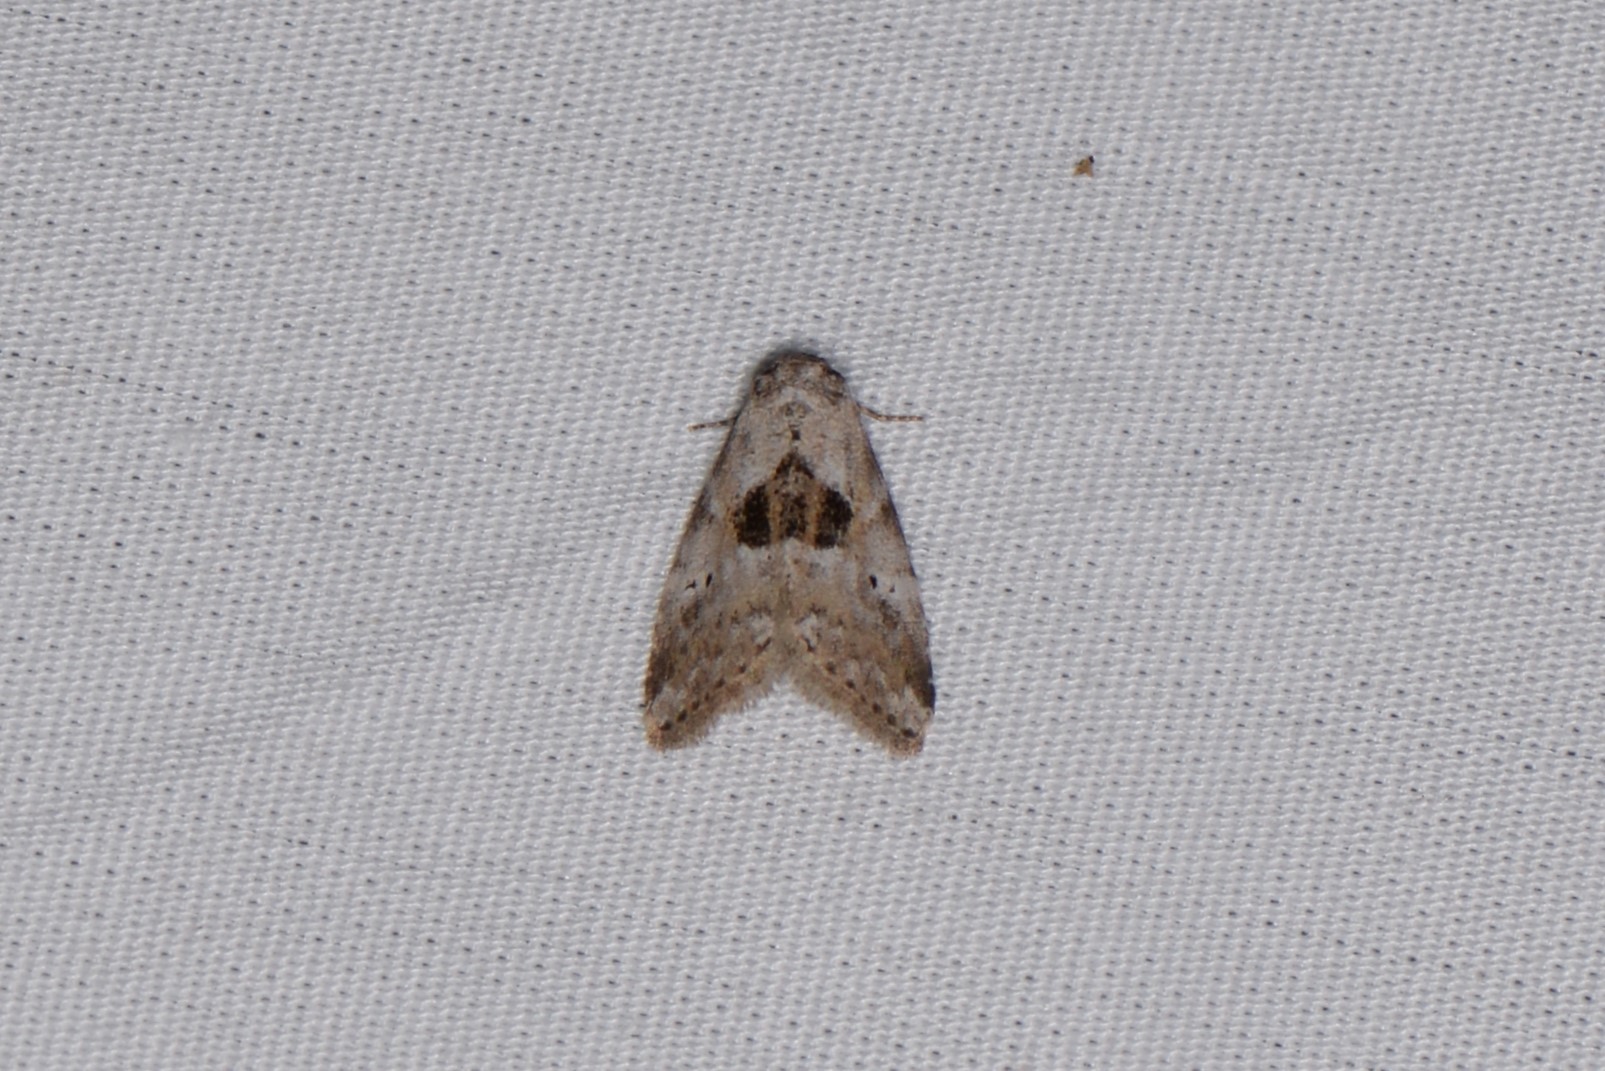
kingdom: Animalia
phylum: Arthropoda
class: Insecta
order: Lepidoptera
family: Erebidae
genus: Hyperstrotia
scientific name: Hyperstrotia secta
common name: Black-patched graylet
